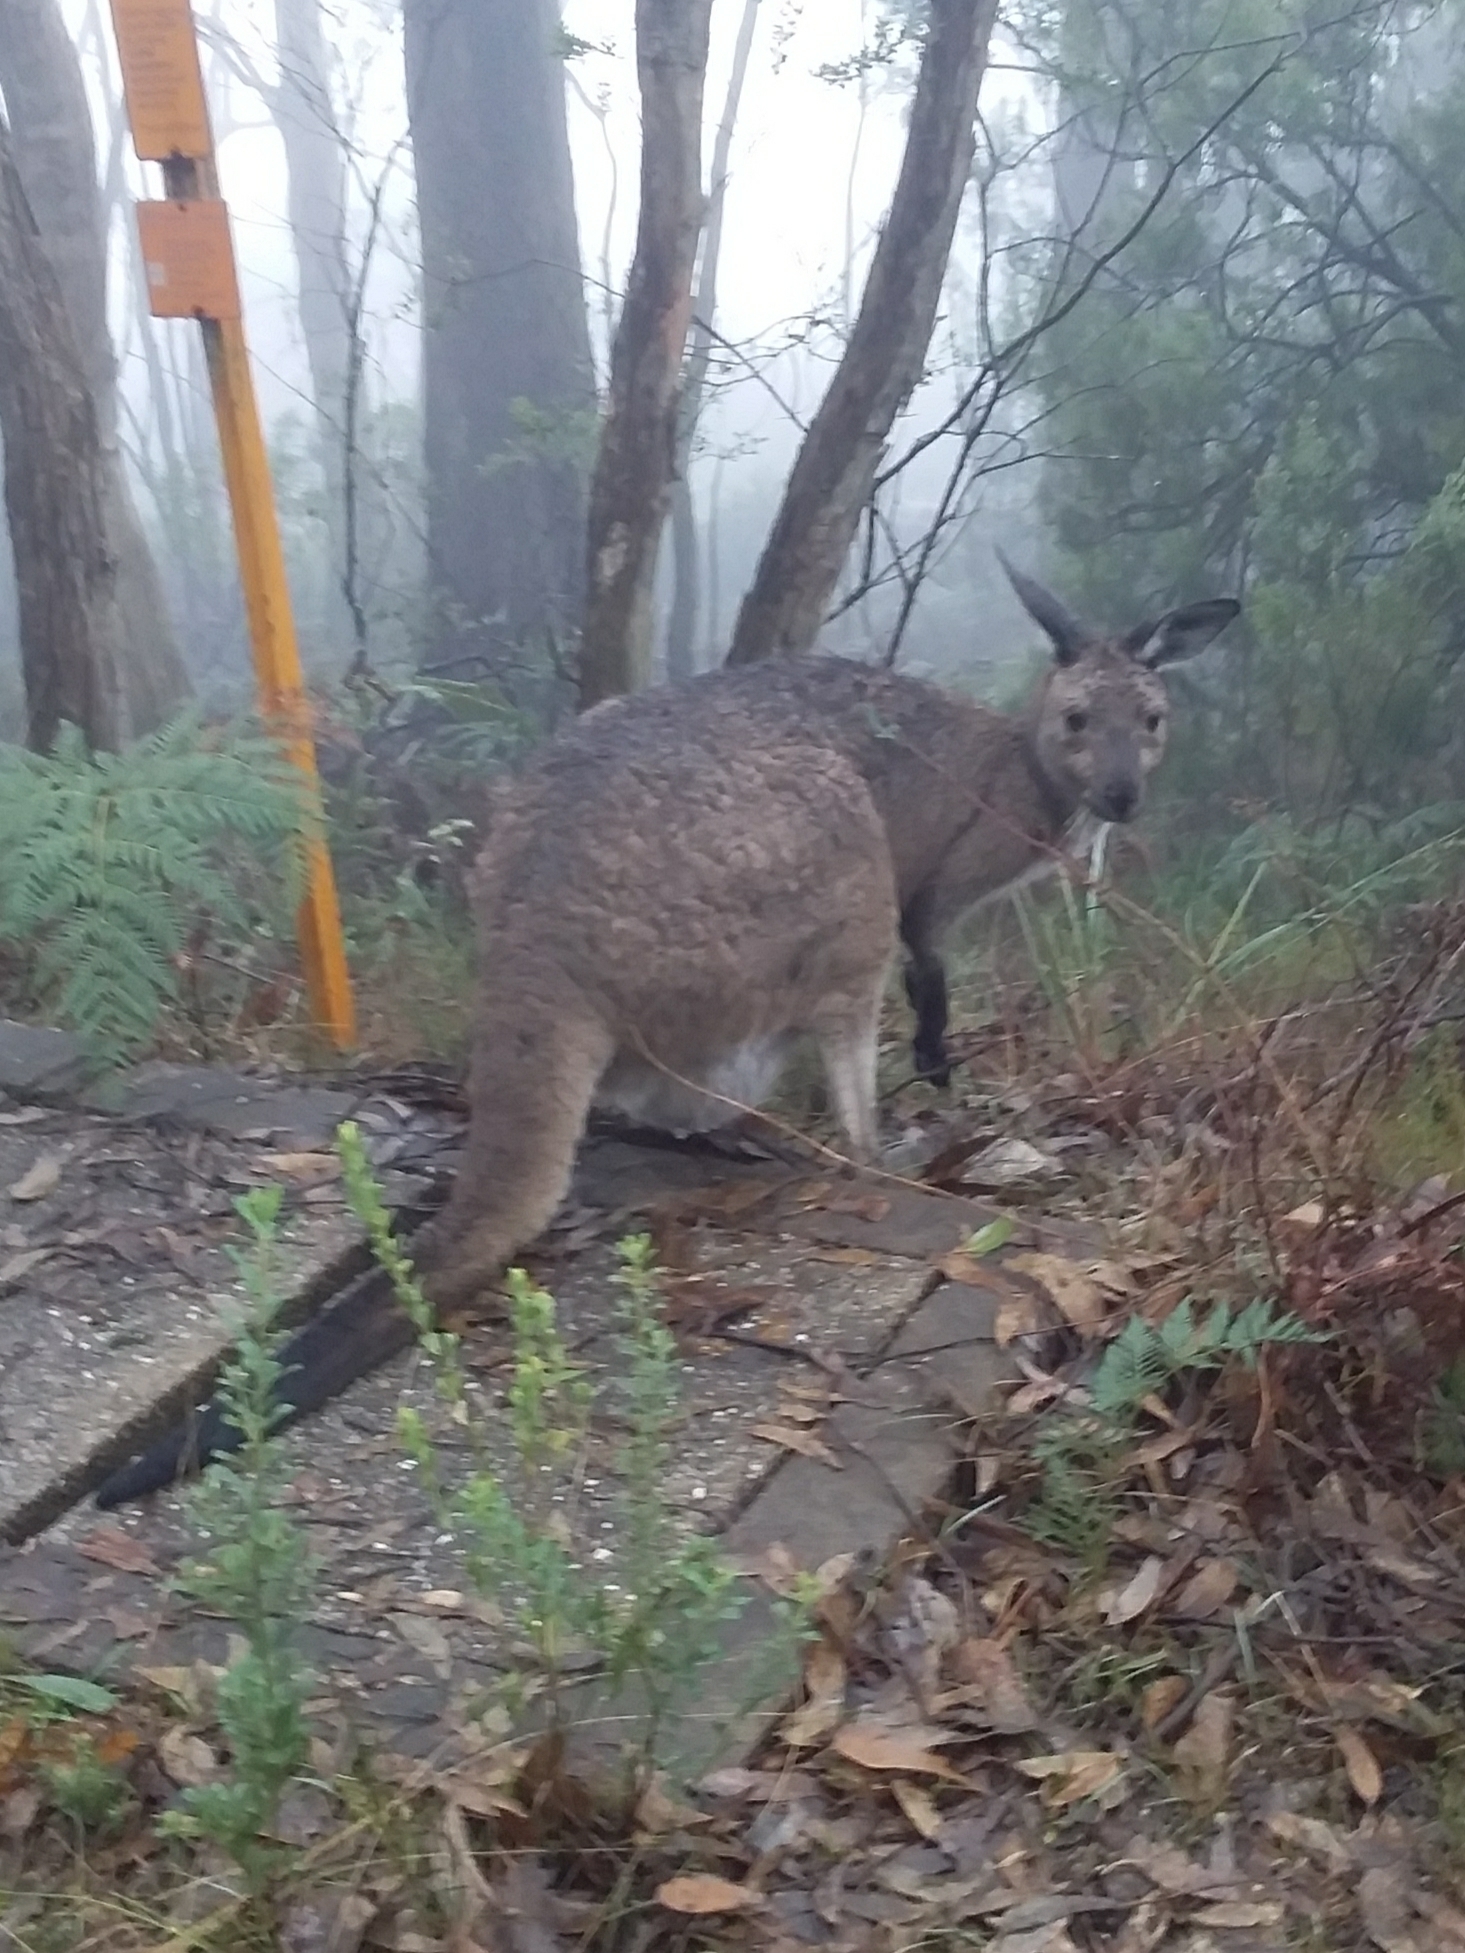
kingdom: Animalia
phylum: Chordata
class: Mammalia
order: Diprotodontia
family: Macropodidae
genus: Macropus
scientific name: Macropus fuliginosus
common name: Western grey kangaroo
